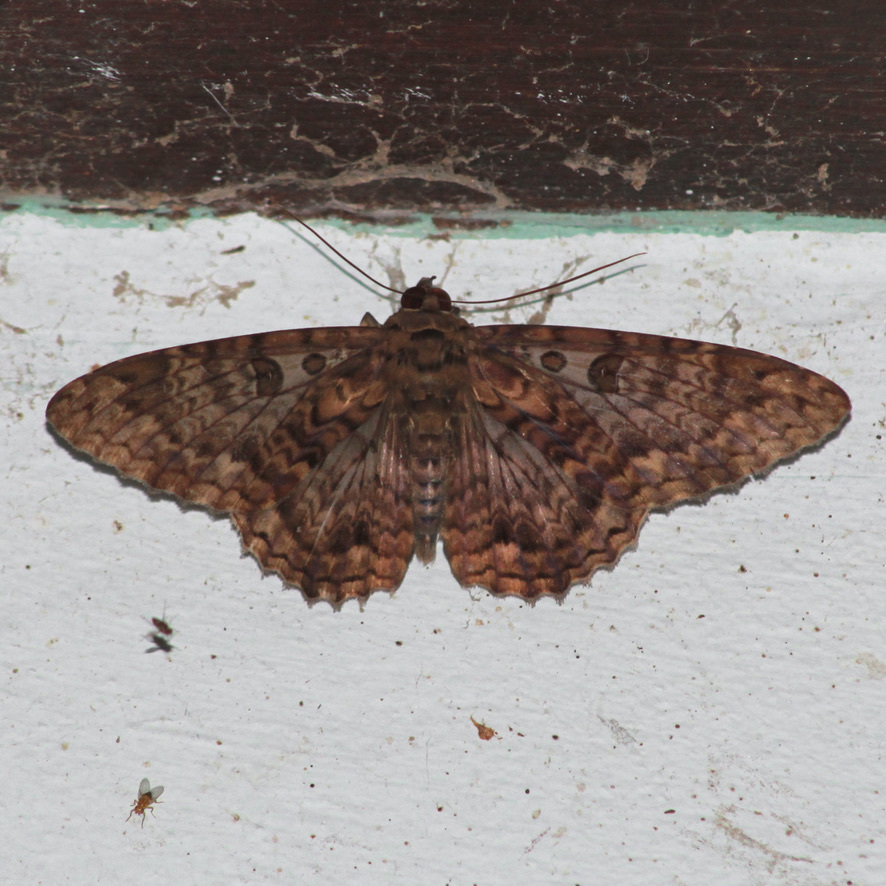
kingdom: Animalia
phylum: Arthropoda
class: Insecta
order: Lepidoptera
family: Erebidae
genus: Feigeria
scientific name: Feigeria scops
